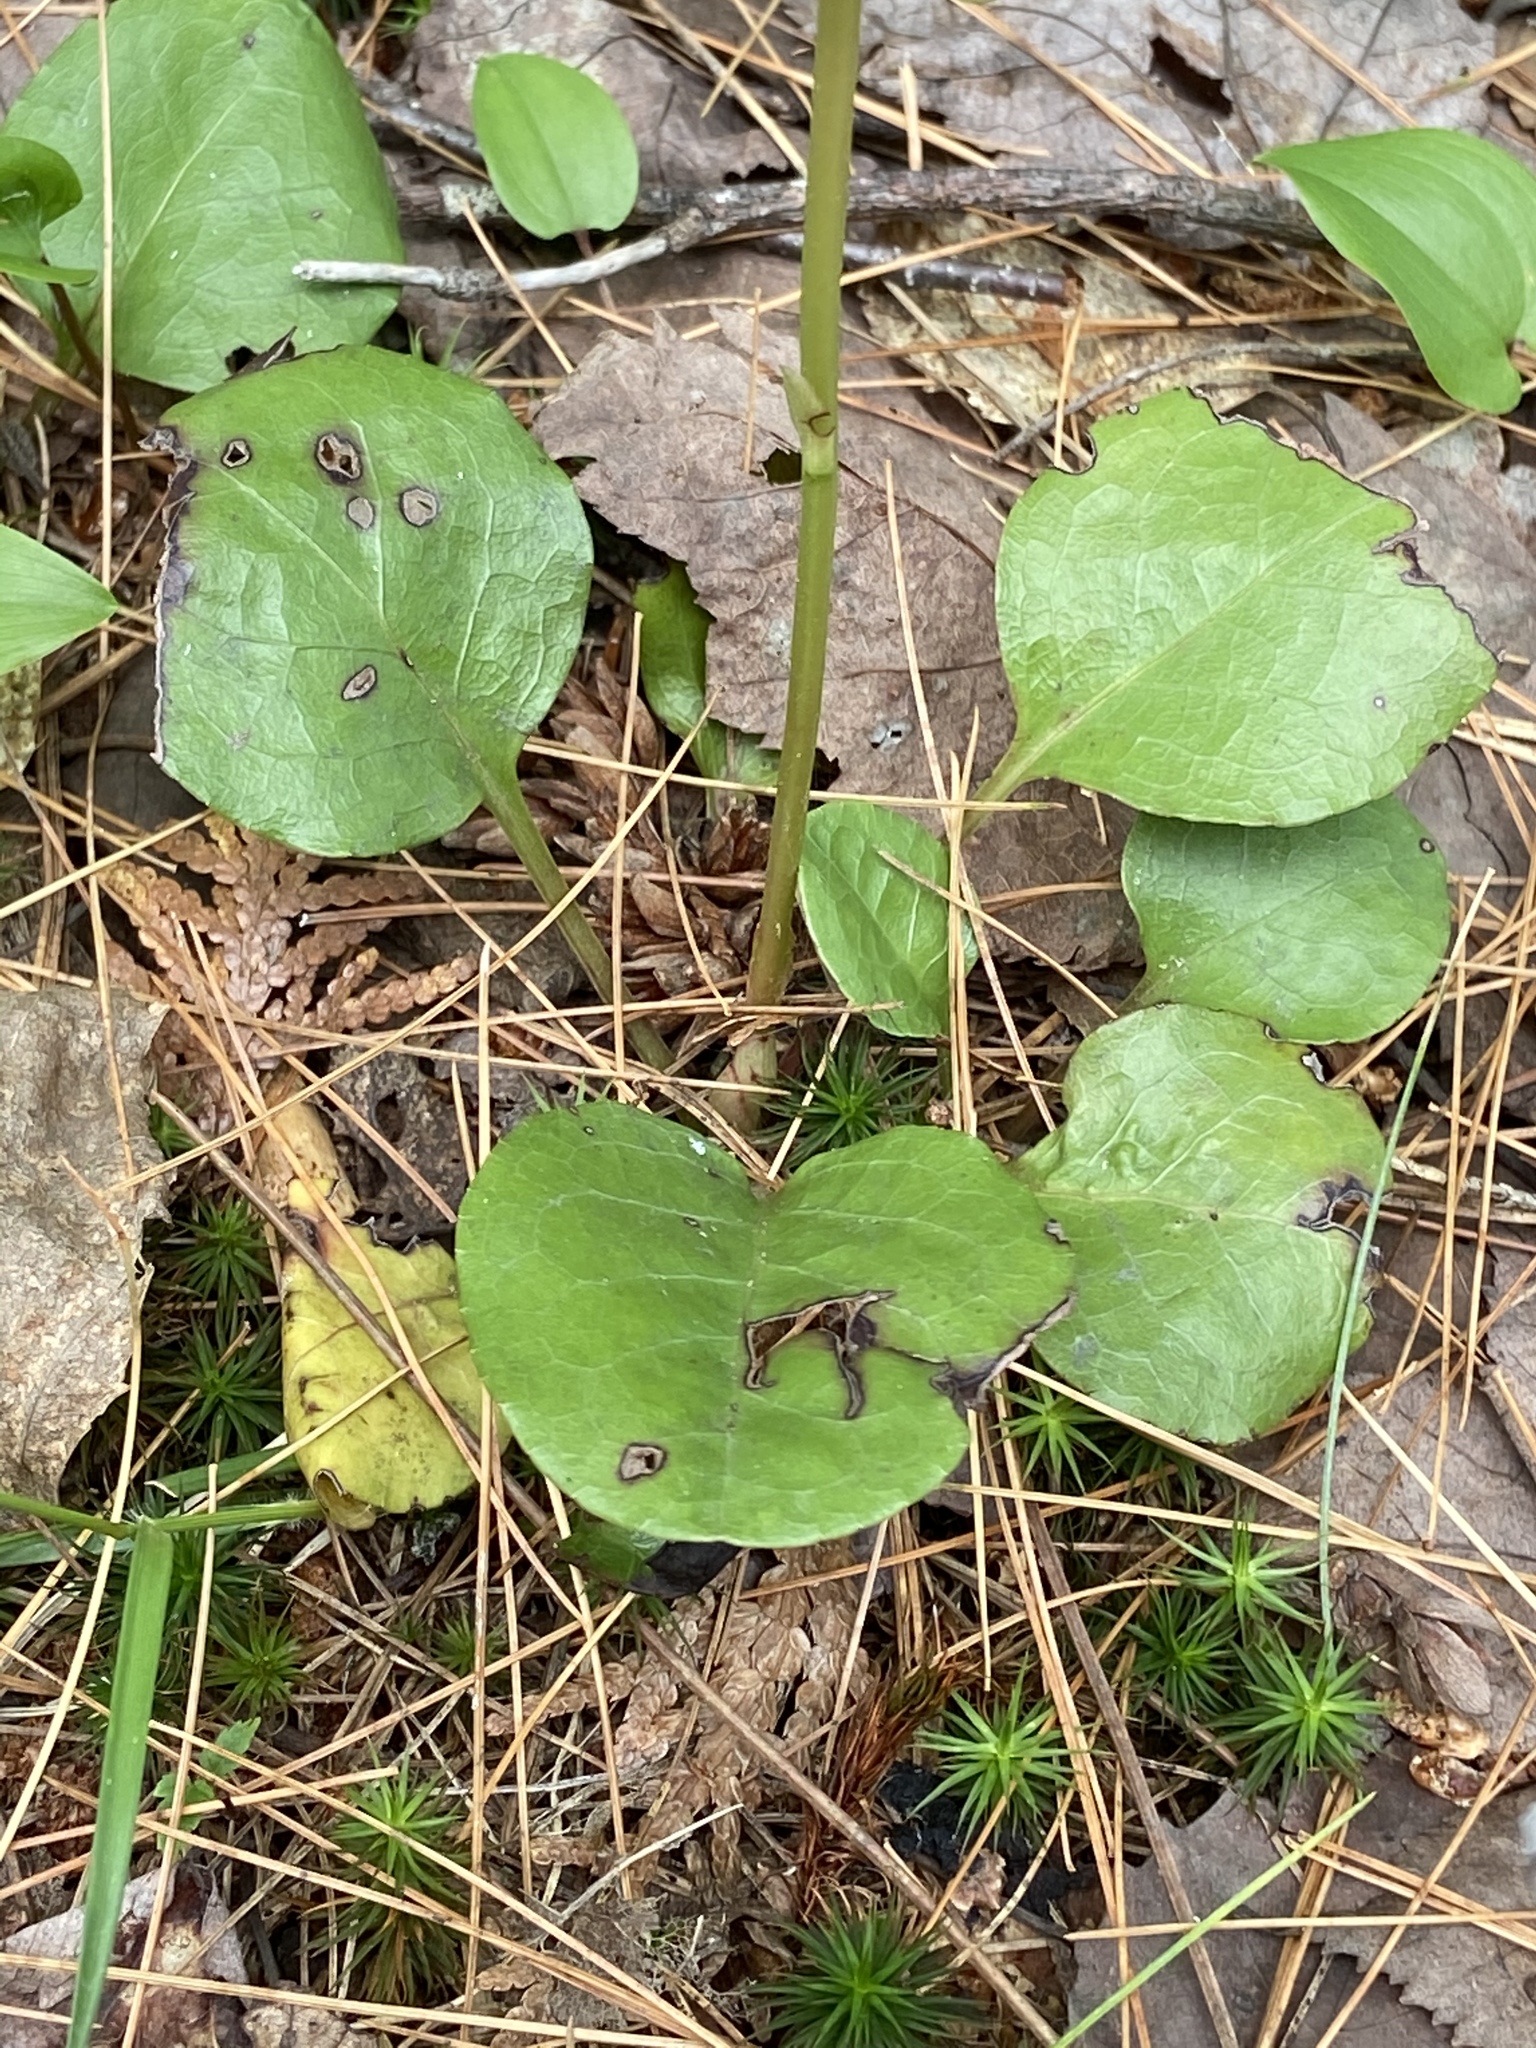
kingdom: Plantae
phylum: Tracheophyta
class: Magnoliopsida
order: Ericales
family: Ericaceae
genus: Pyrola
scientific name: Pyrola americana
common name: American wintergreen
